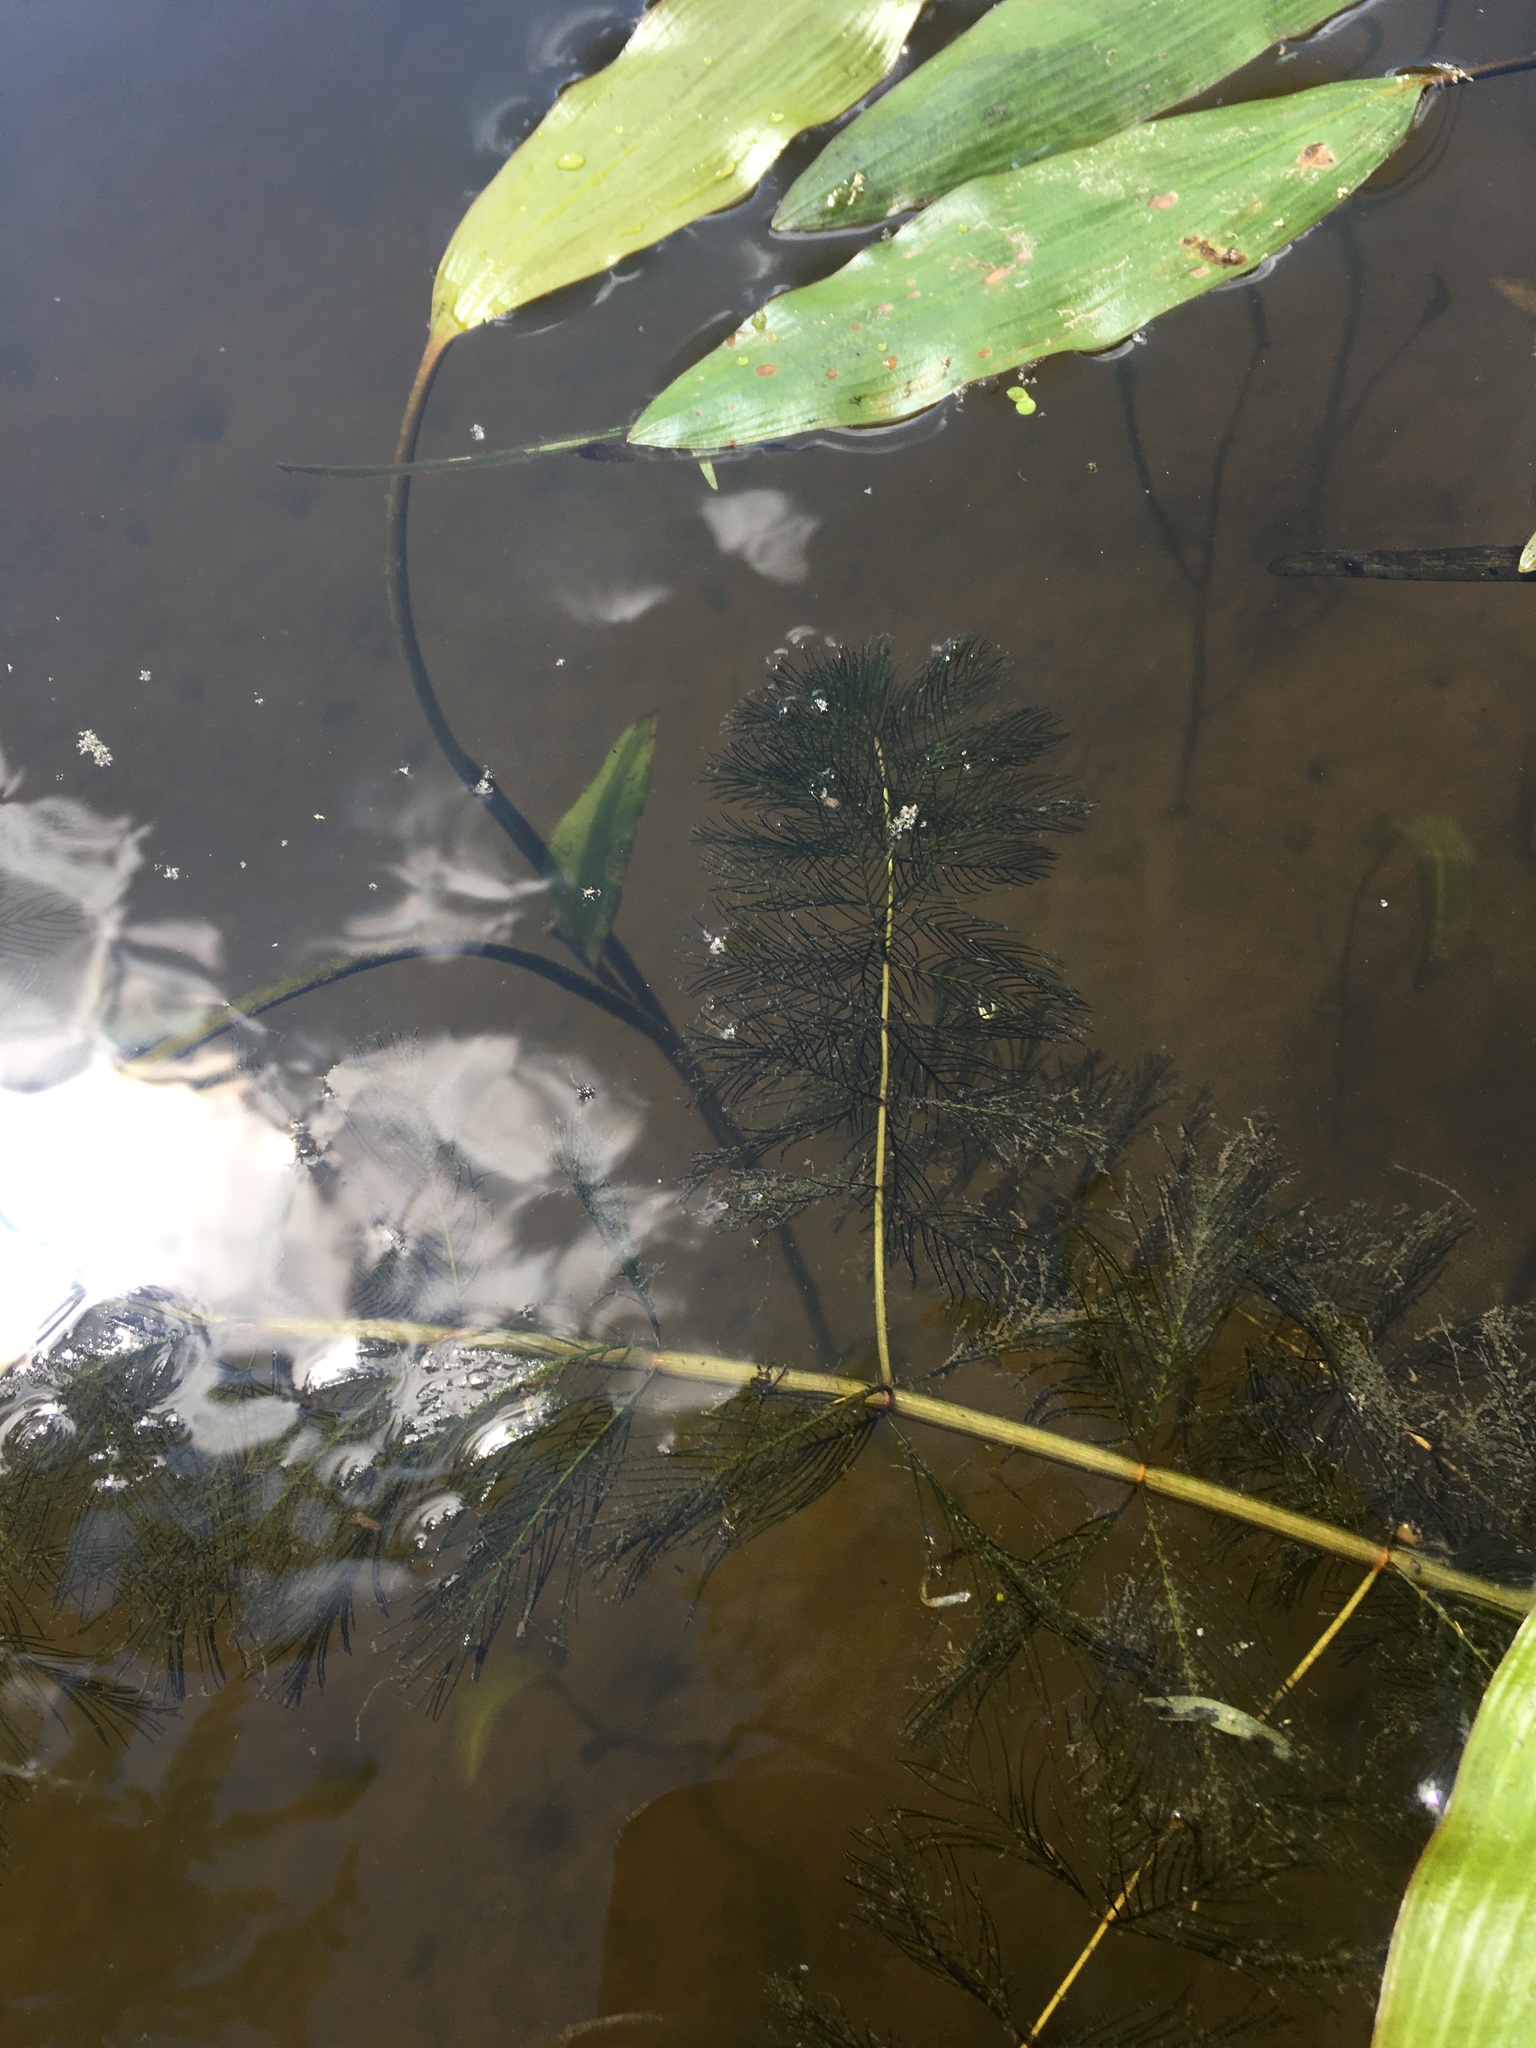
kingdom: Plantae
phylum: Tracheophyta
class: Magnoliopsida
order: Saxifragales
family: Haloragaceae
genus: Myriophyllum
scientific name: Myriophyllum spicatum
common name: Spiked water-milfoil
